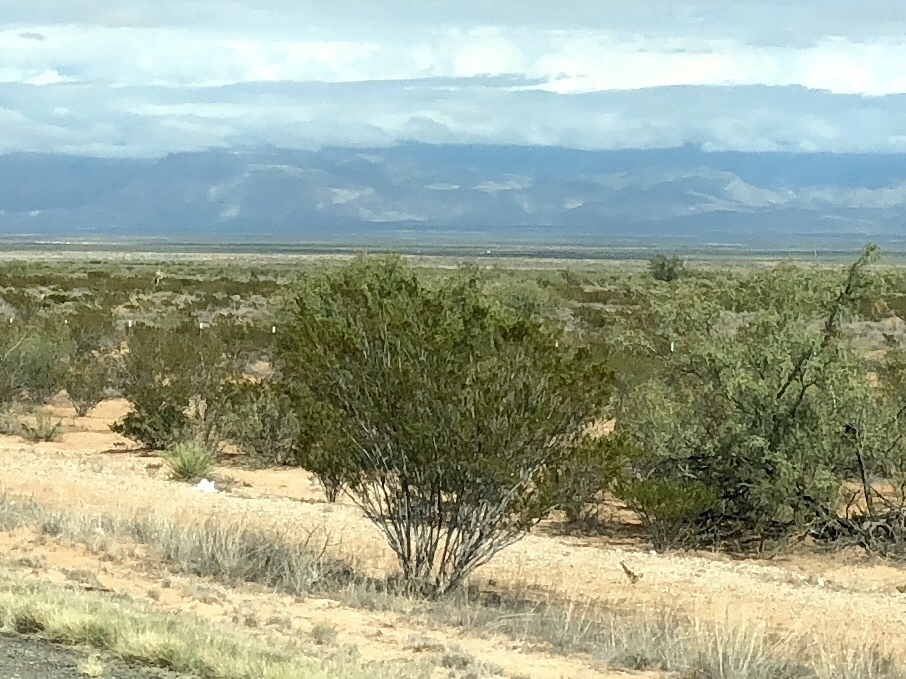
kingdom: Plantae
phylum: Tracheophyta
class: Magnoliopsida
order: Zygophyllales
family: Zygophyllaceae
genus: Larrea
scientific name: Larrea tridentata
